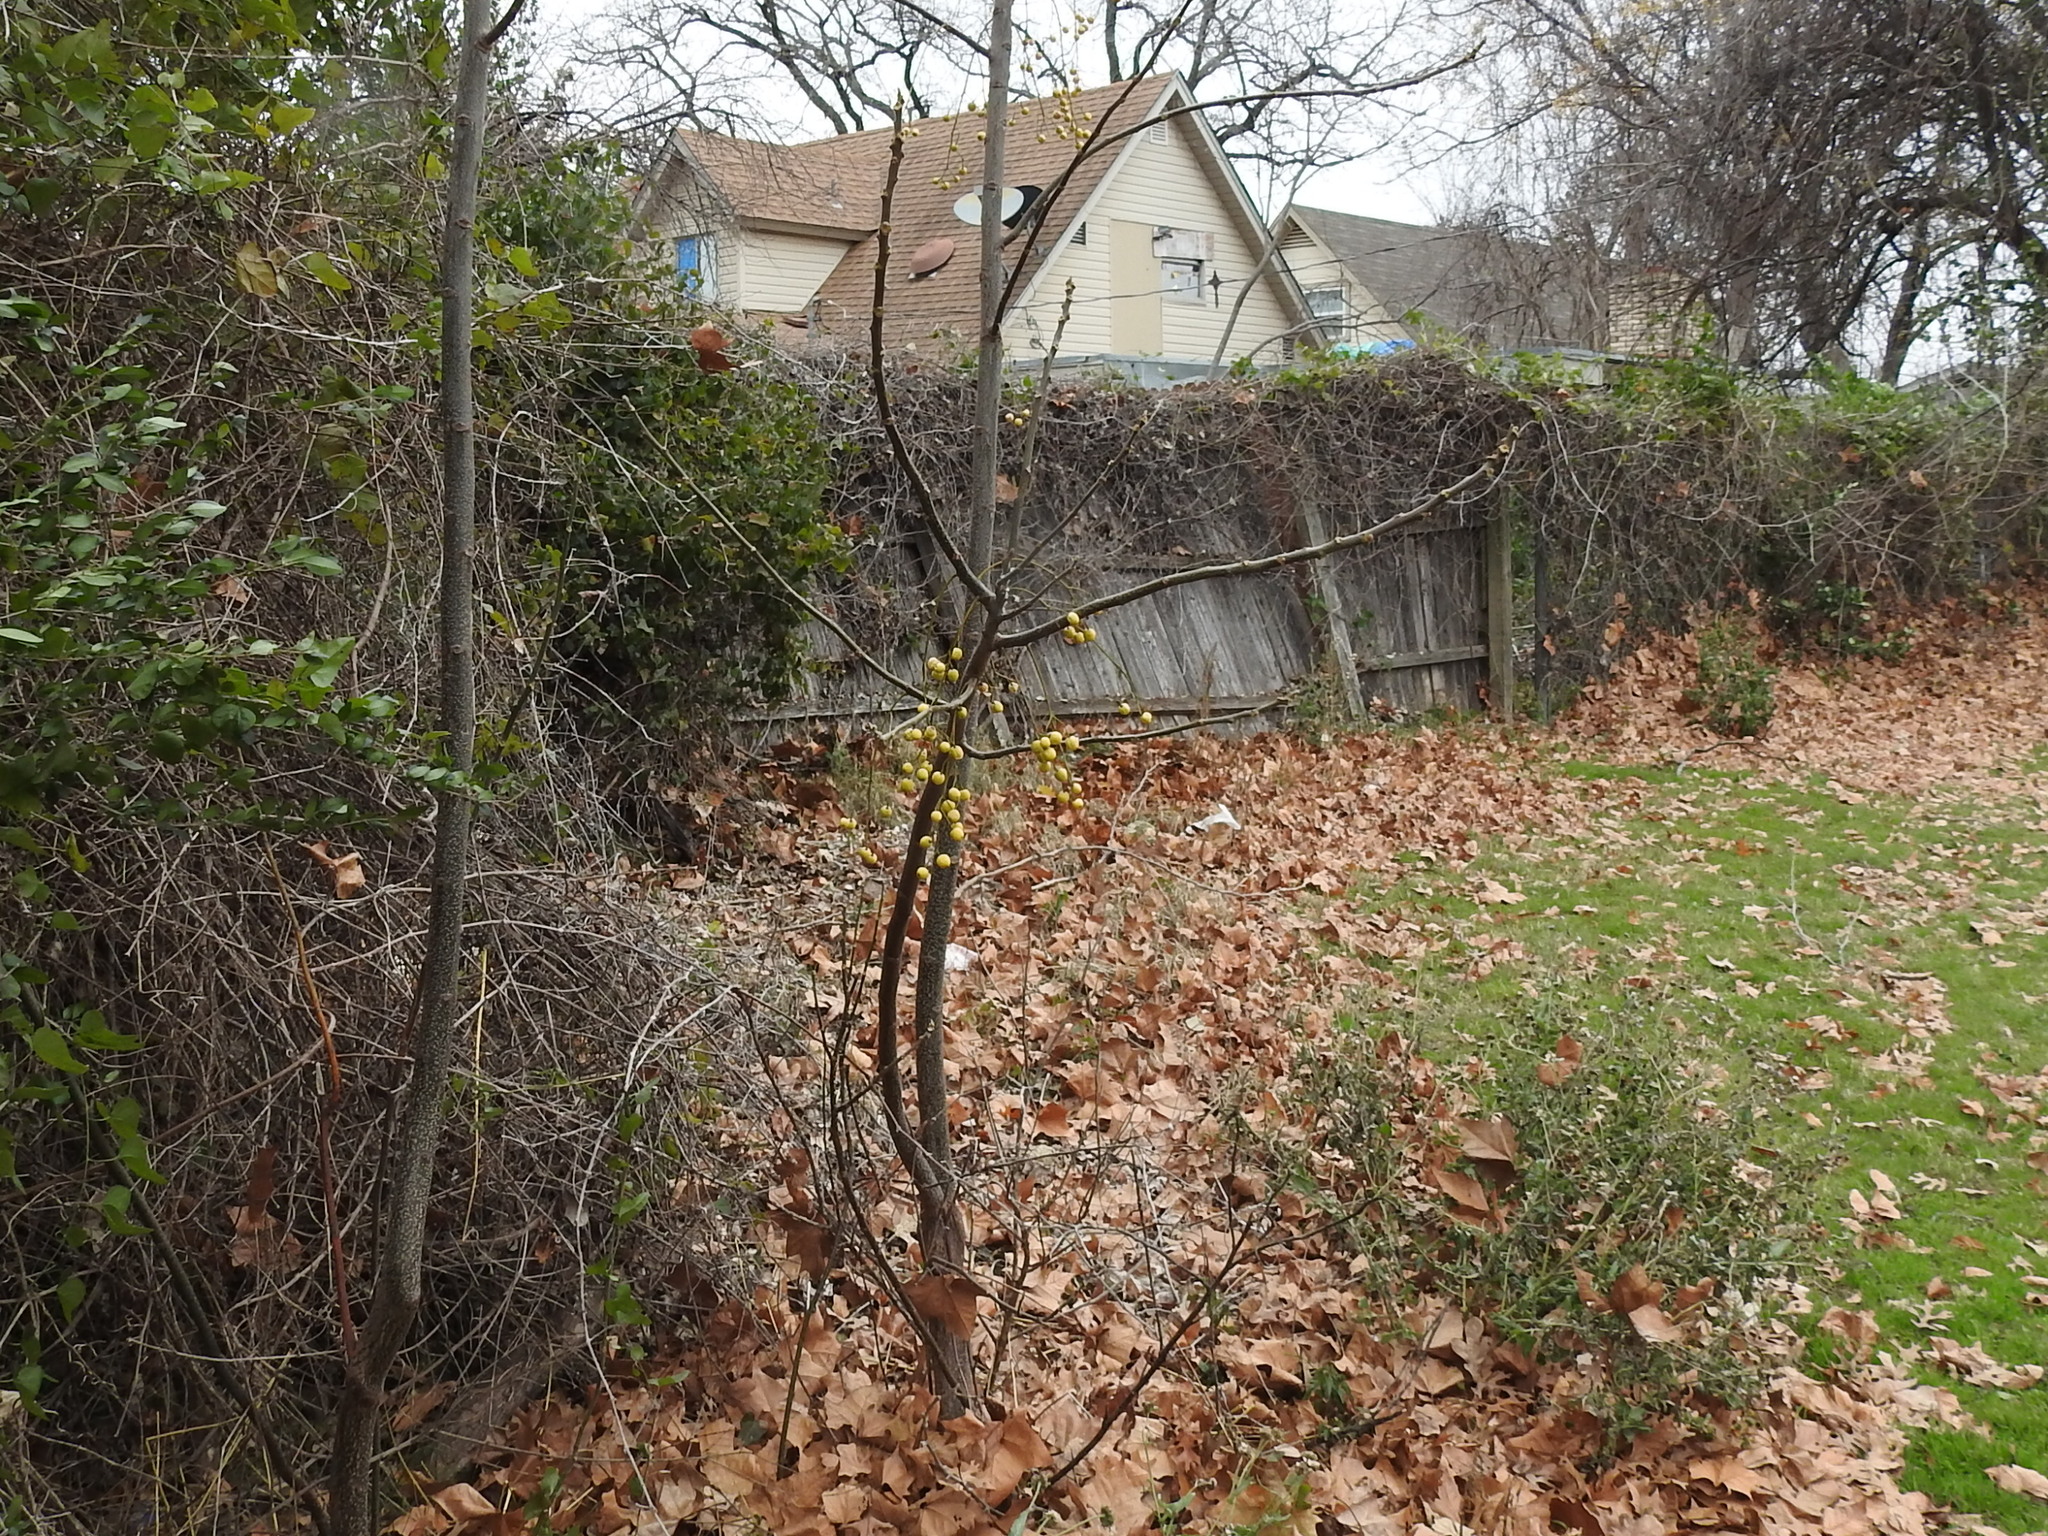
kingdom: Plantae
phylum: Tracheophyta
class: Magnoliopsida
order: Sapindales
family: Meliaceae
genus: Melia
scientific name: Melia azedarach
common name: Chinaberrytree
